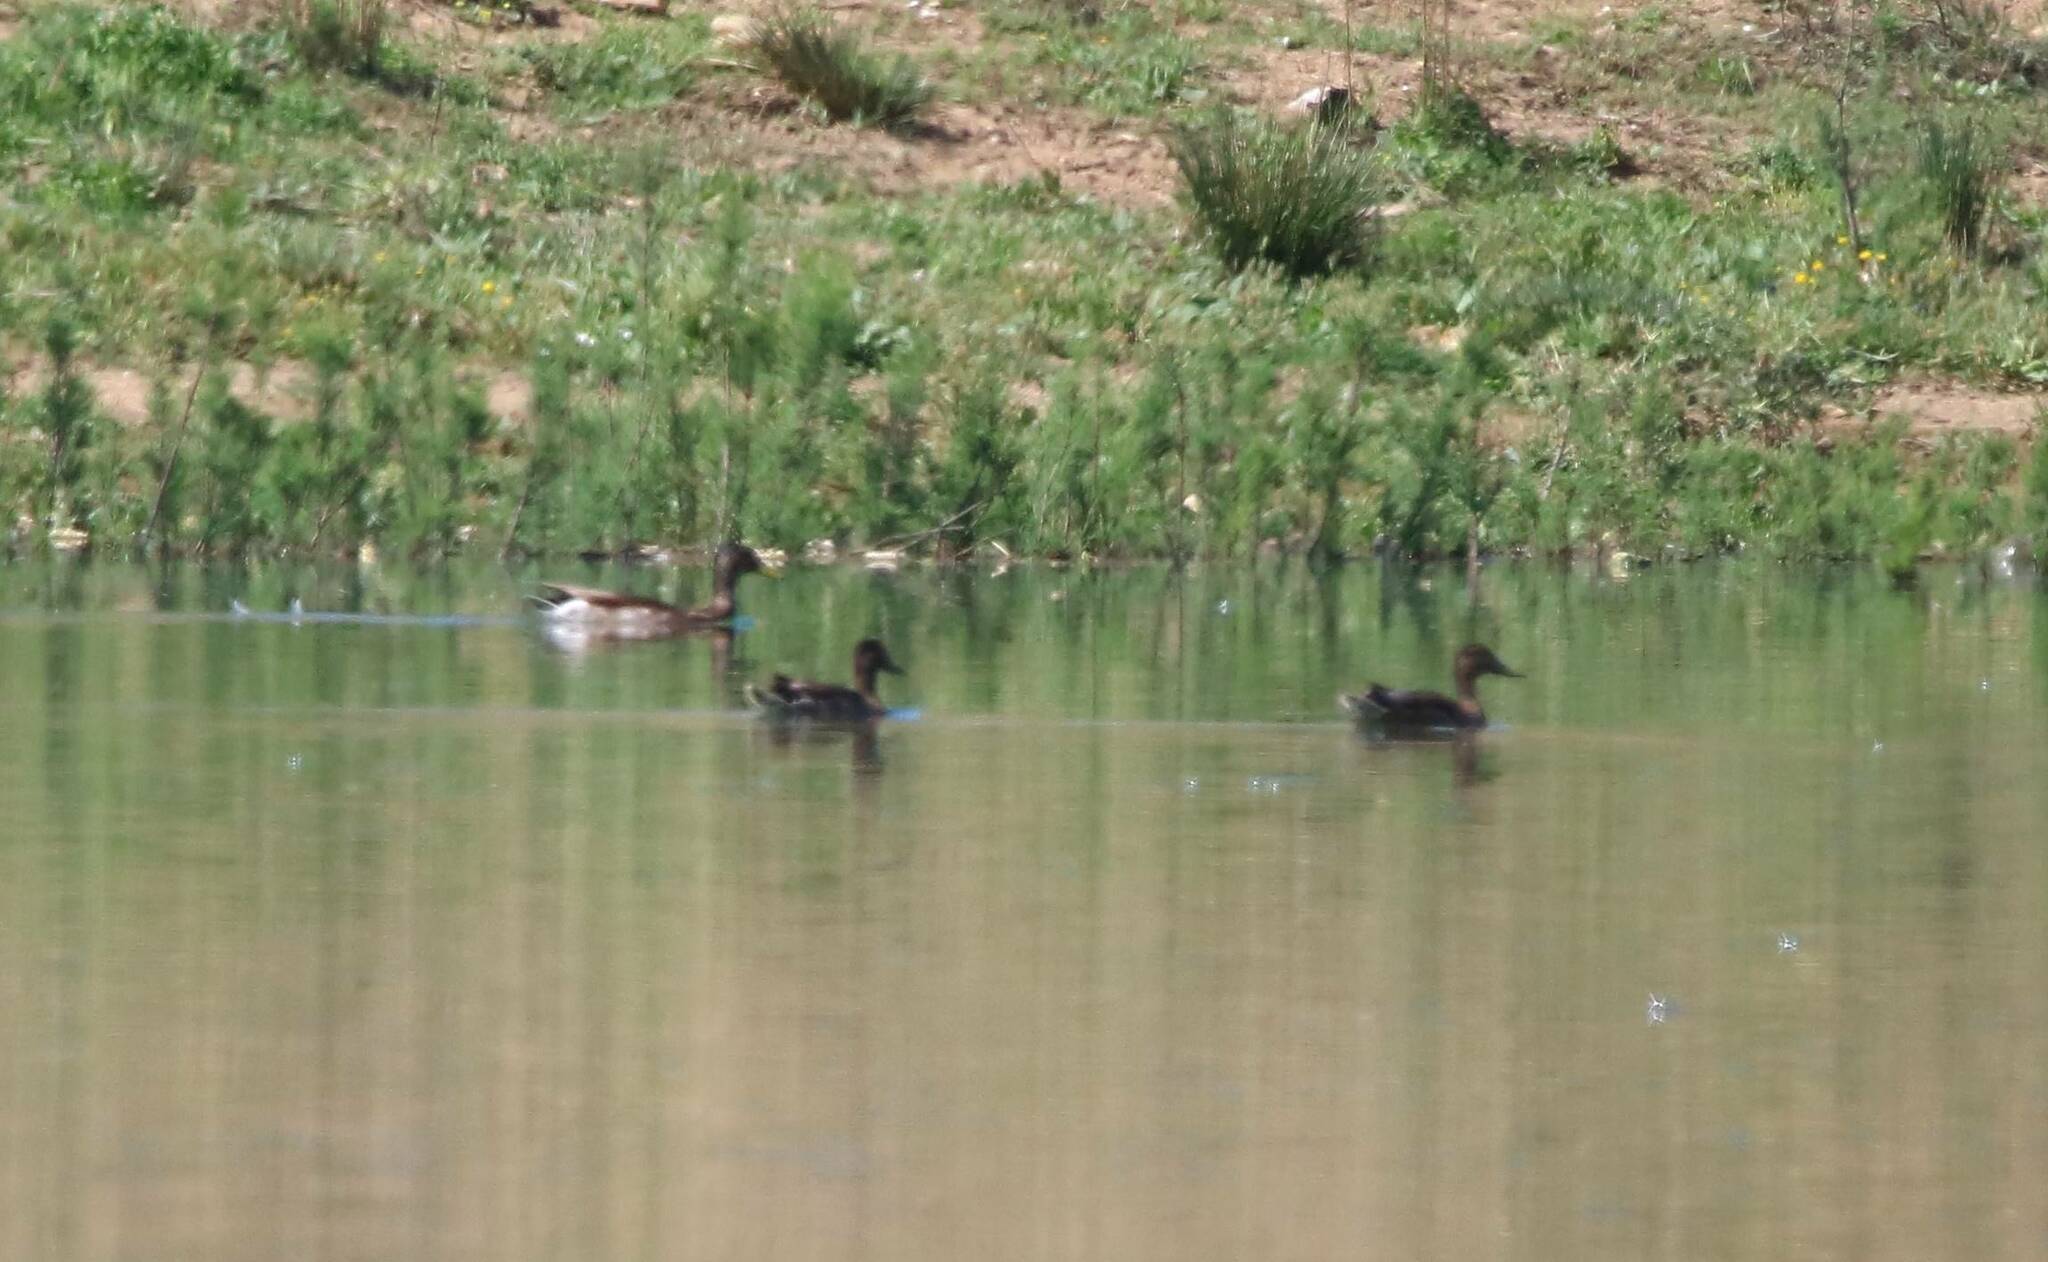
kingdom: Animalia
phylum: Chordata
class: Aves
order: Anseriformes
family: Anatidae
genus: Anas
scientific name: Anas platyrhynchos
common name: Mallard
